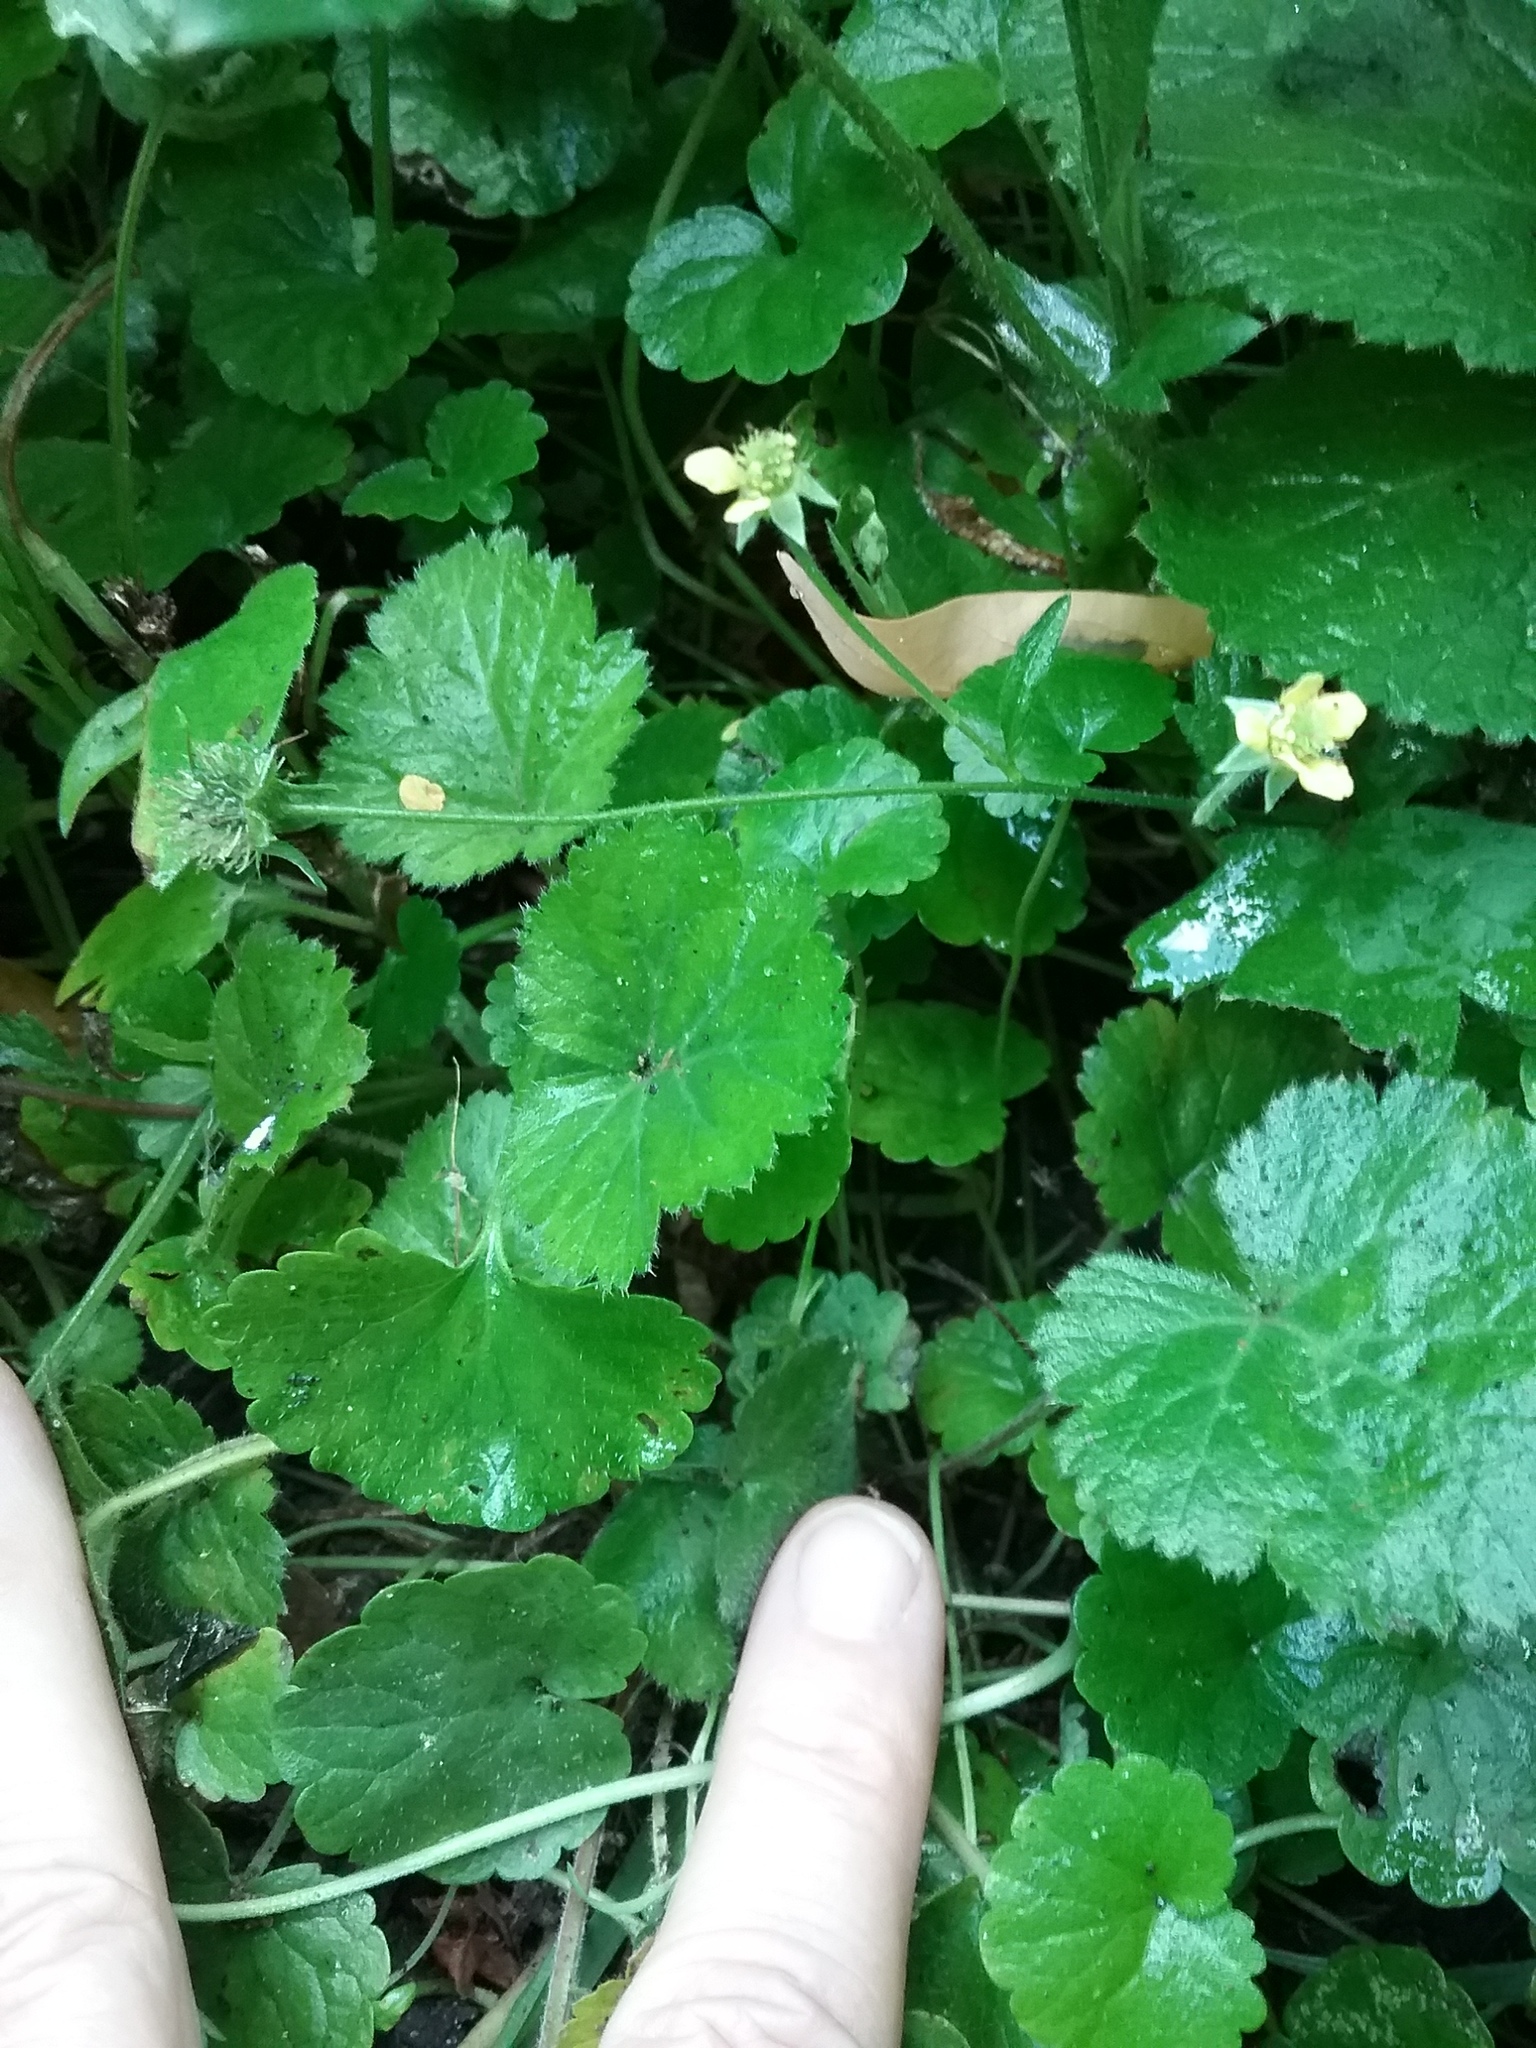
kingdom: Plantae
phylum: Tracheophyta
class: Magnoliopsida
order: Rosales
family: Rosaceae
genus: Geum
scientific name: Geum catlingii
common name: Catling's avens
